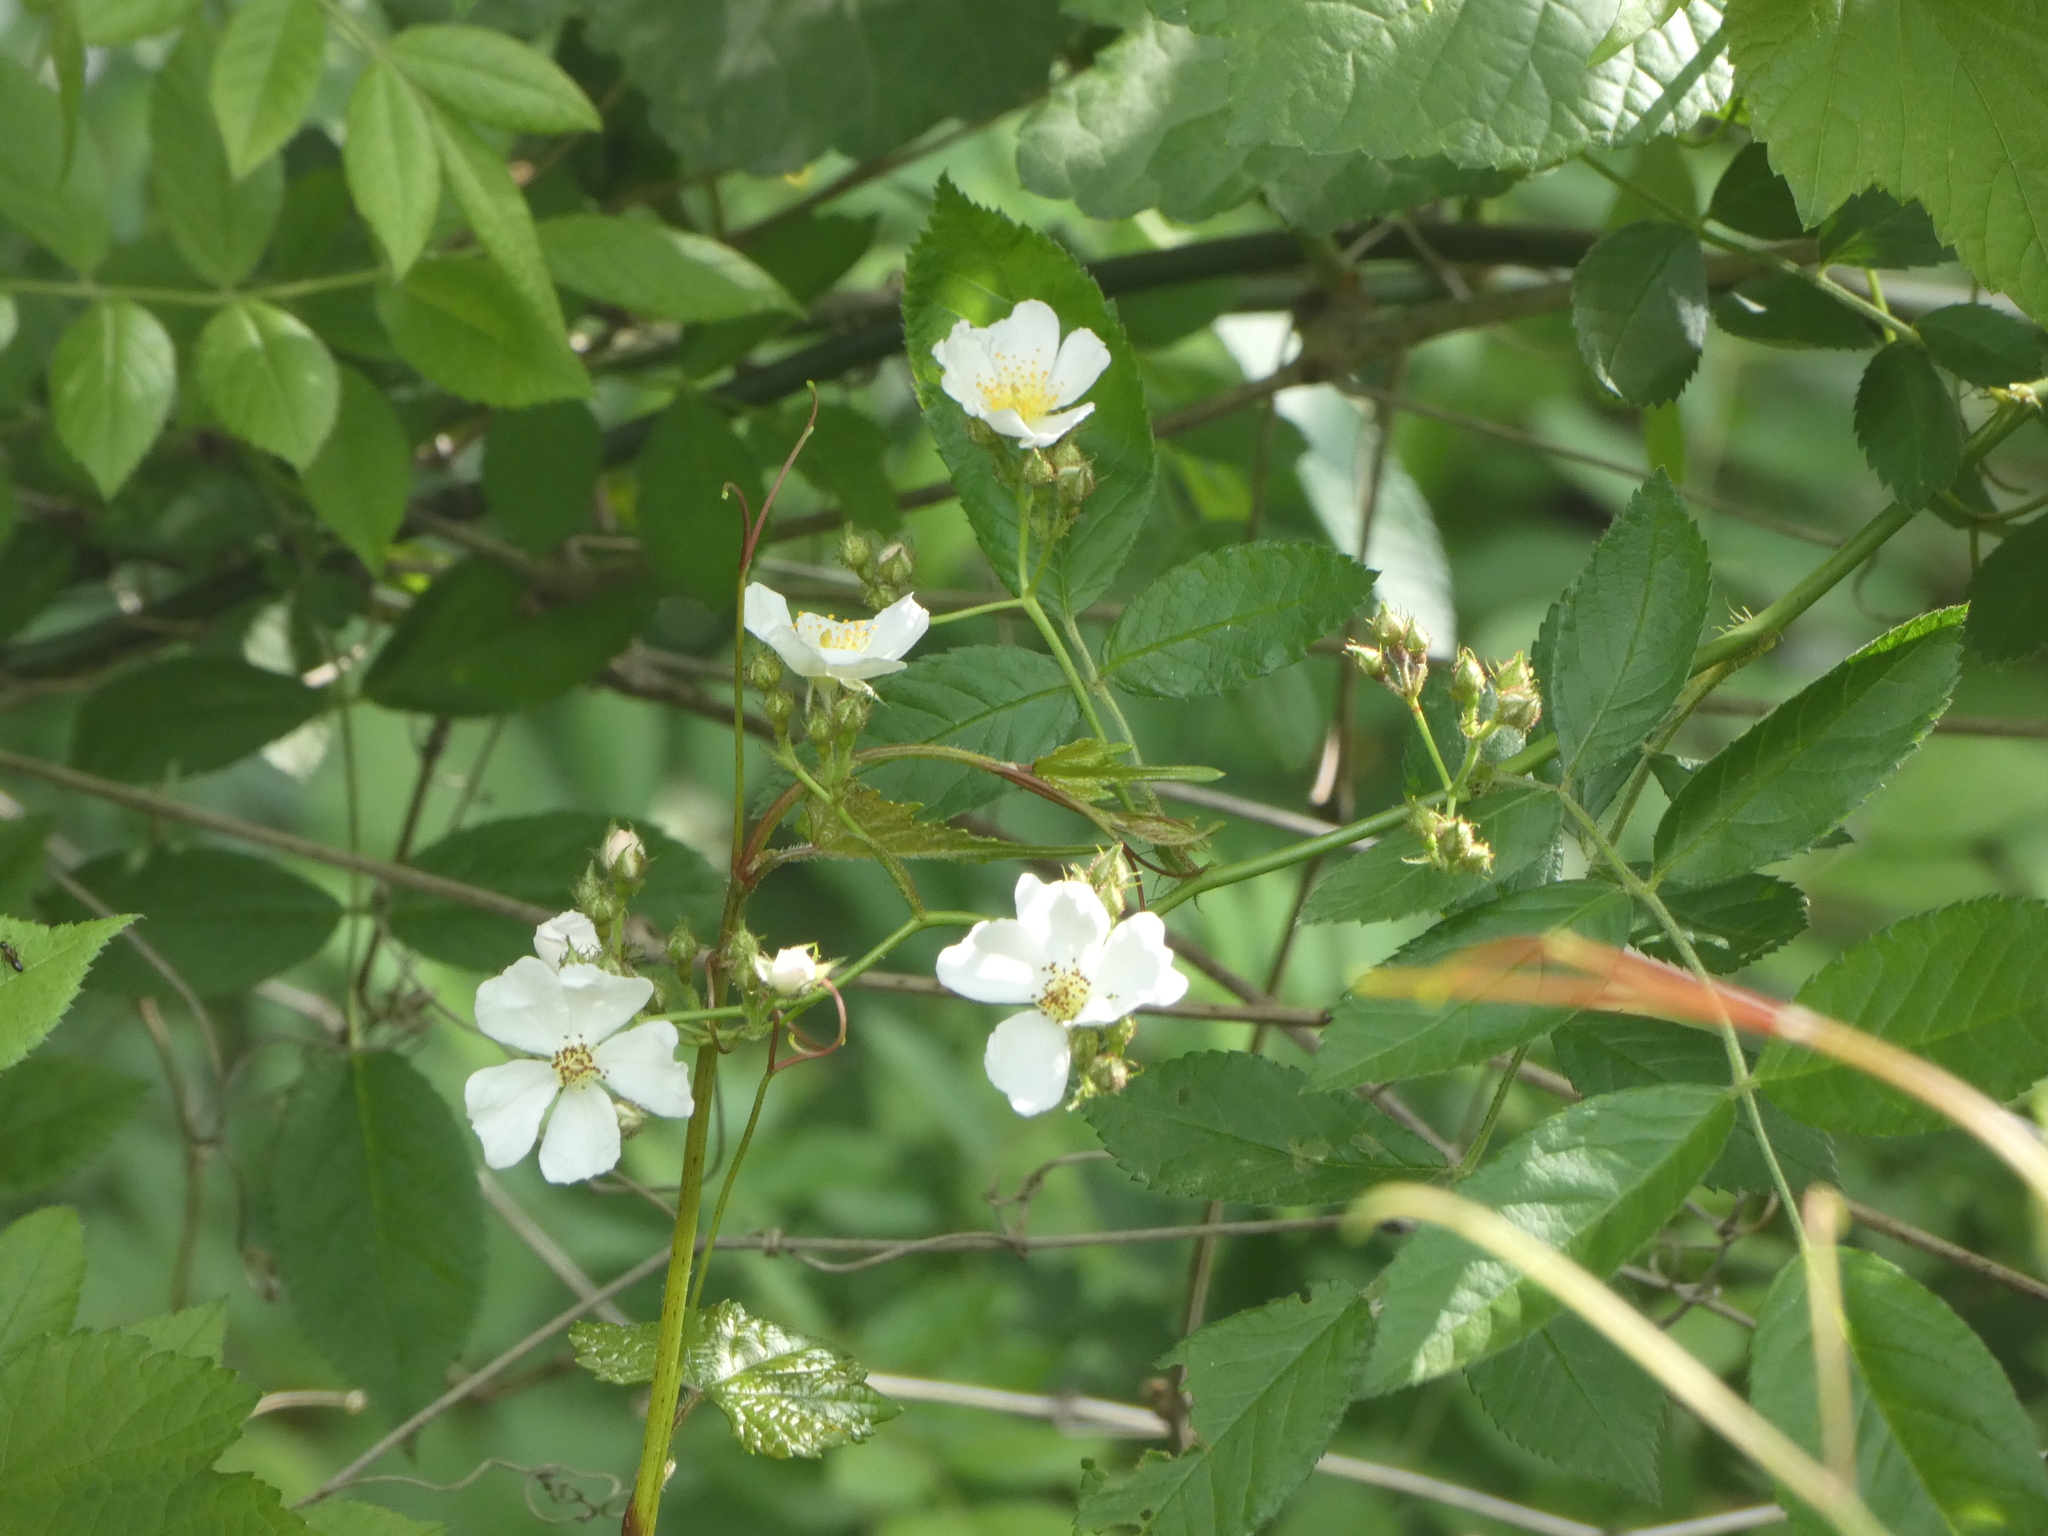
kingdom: Plantae
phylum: Tracheophyta
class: Magnoliopsida
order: Rosales
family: Rosaceae
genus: Rosa
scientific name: Rosa multiflora
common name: Multiflora rose
